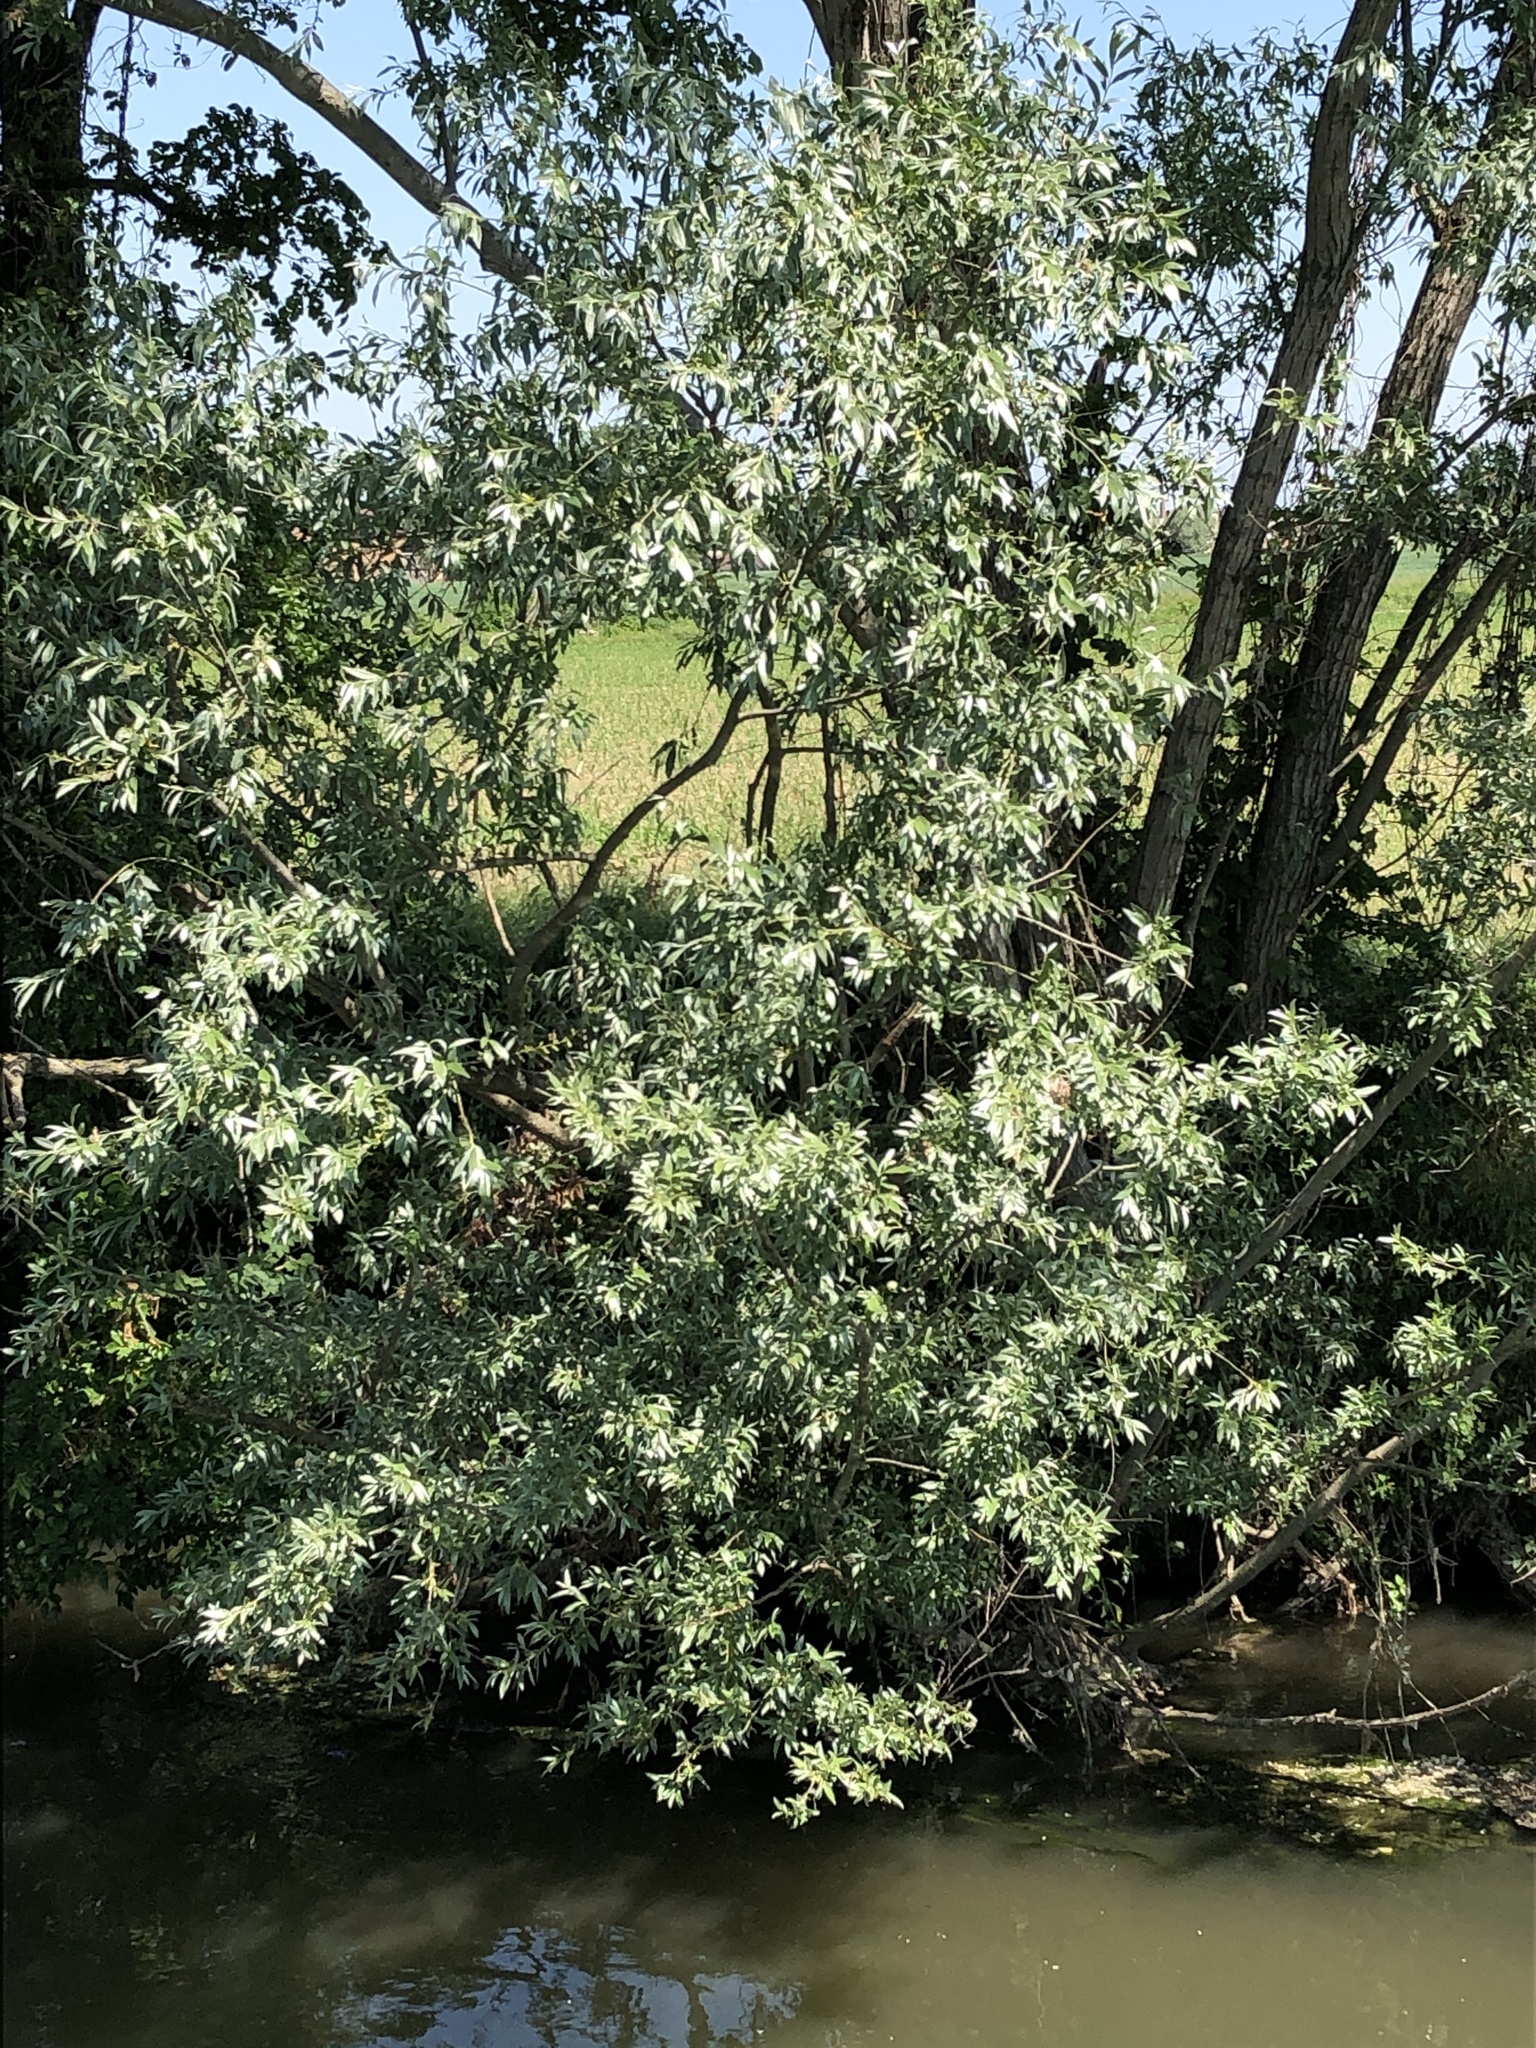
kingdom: Plantae
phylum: Tracheophyta
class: Magnoliopsida
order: Malpighiales
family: Salicaceae
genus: Salix
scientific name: Salix cinerea
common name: Common sallow
